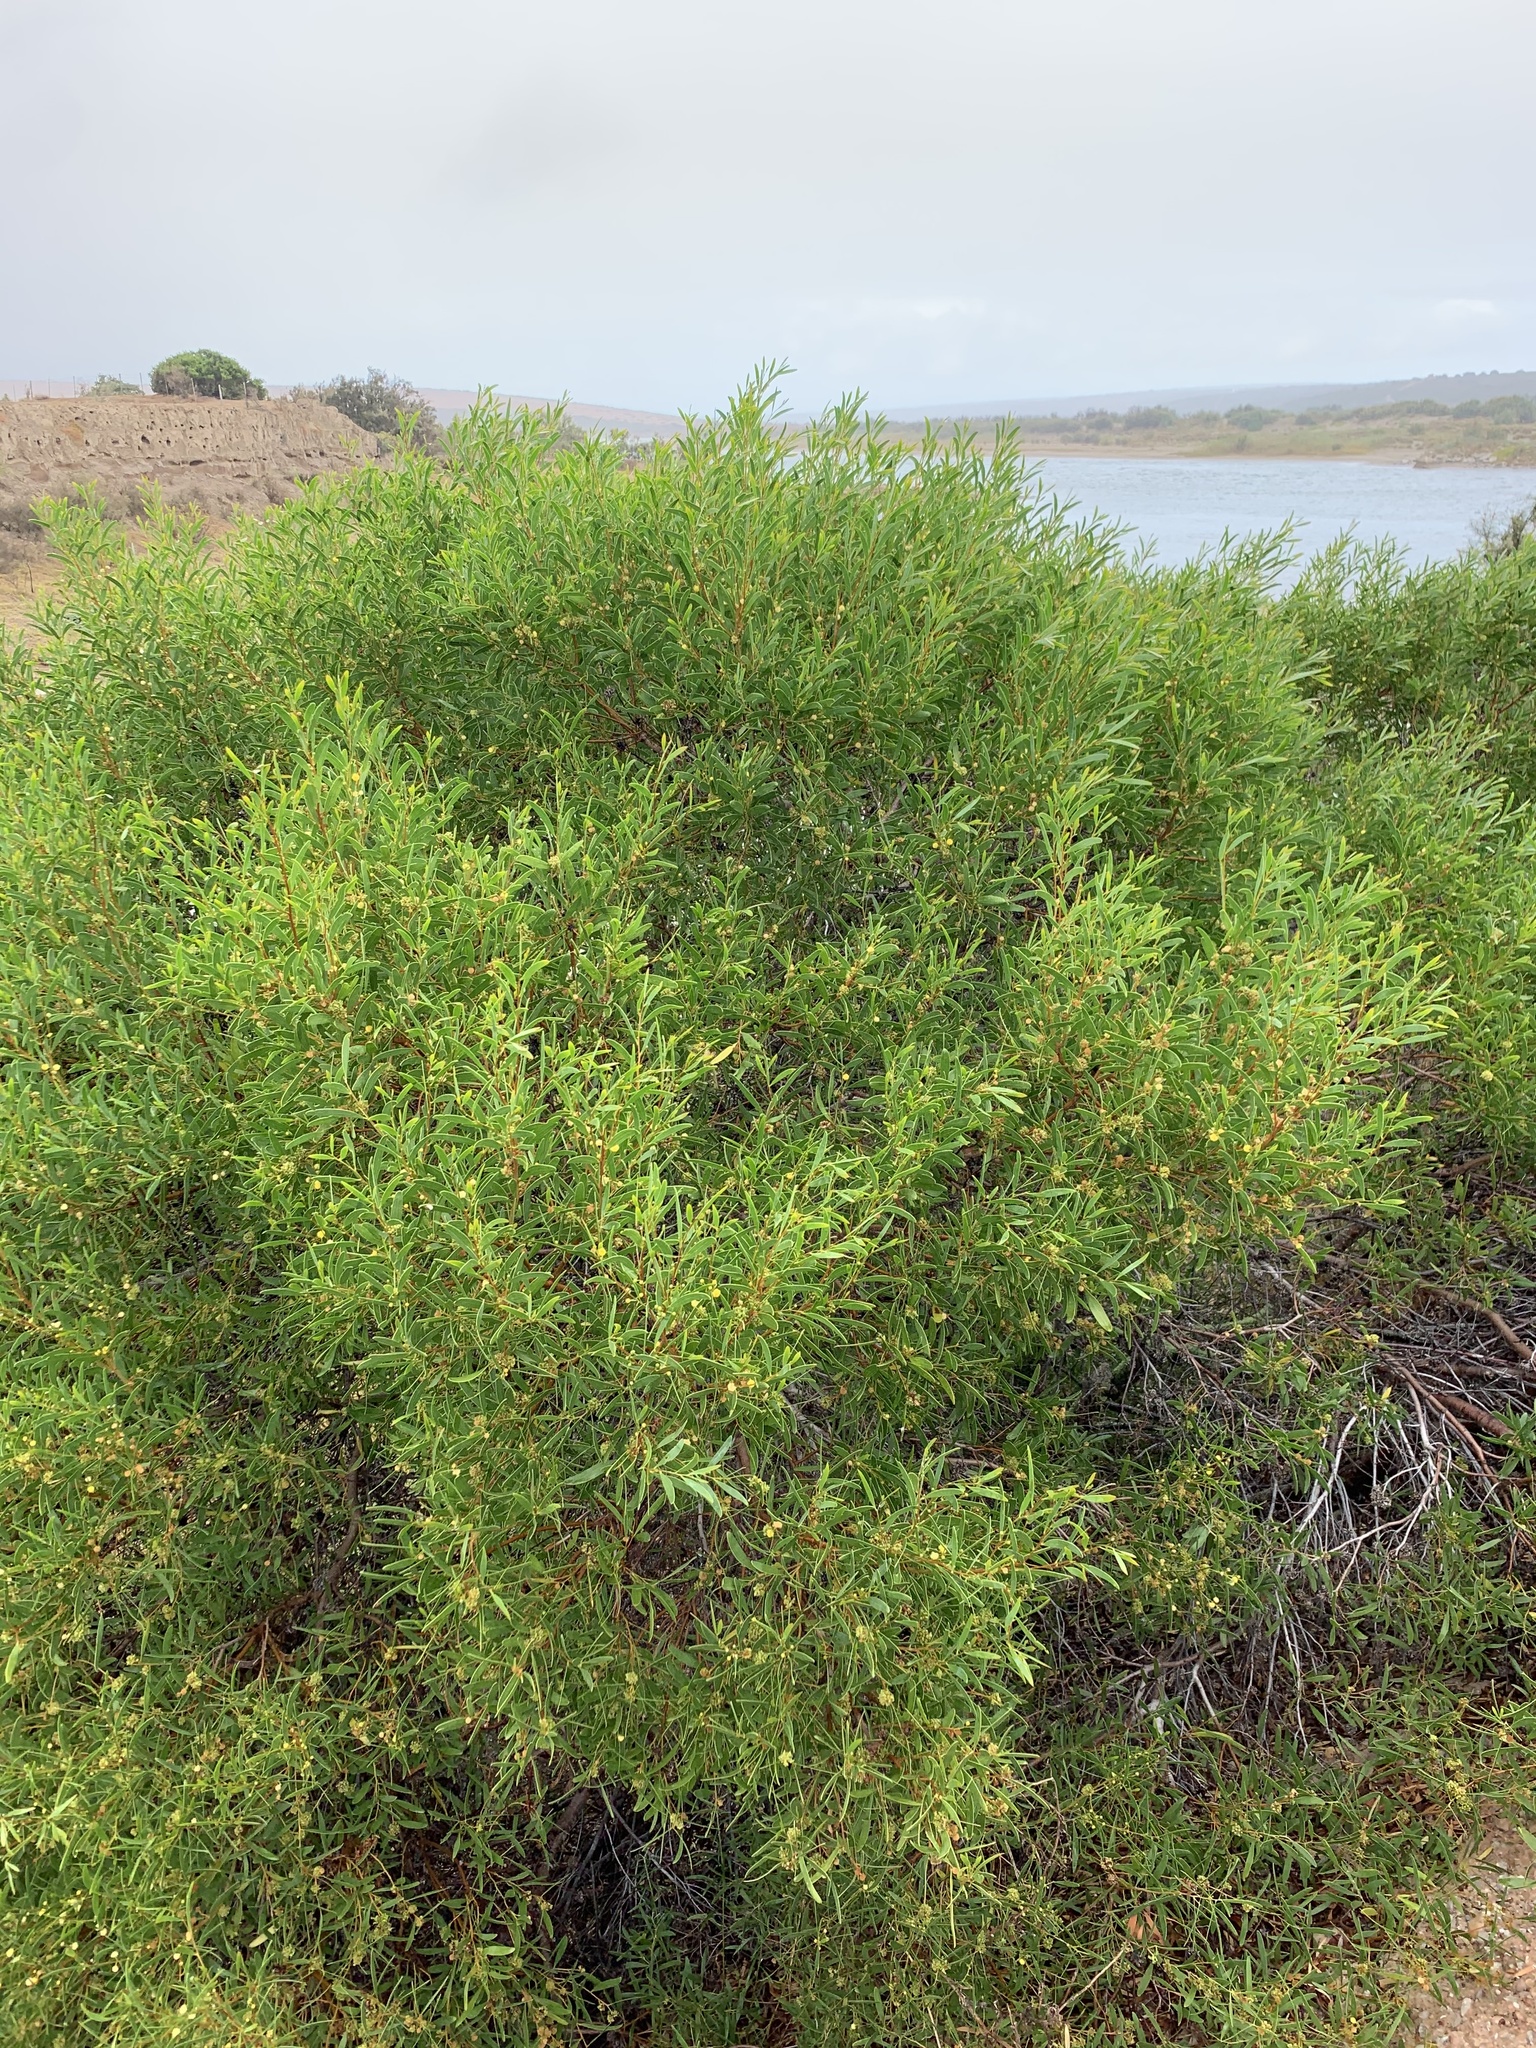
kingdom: Plantae
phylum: Tracheophyta
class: Magnoliopsida
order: Fabales
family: Fabaceae
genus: Acacia
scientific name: Acacia cyclops
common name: Coastal wattle
